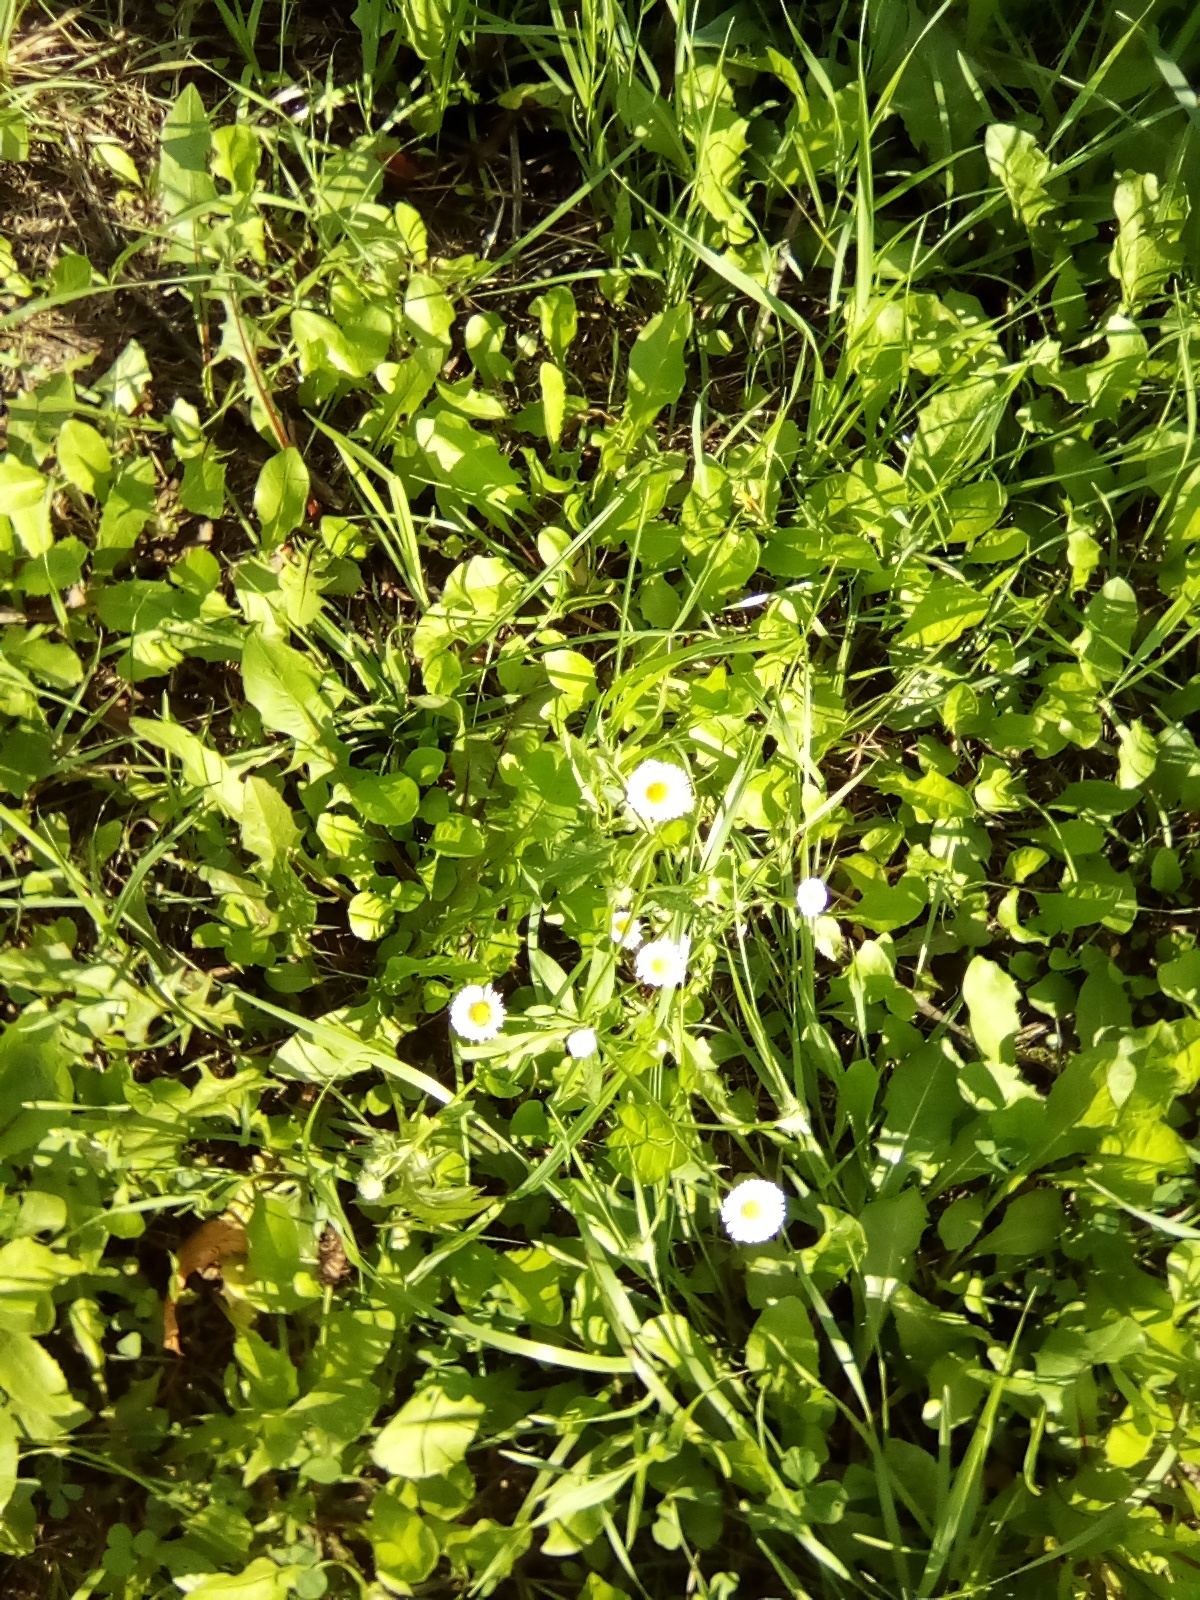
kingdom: Plantae
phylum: Tracheophyta
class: Magnoliopsida
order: Asterales
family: Asteraceae
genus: Bellis
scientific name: Bellis perennis
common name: Lawndaisy
